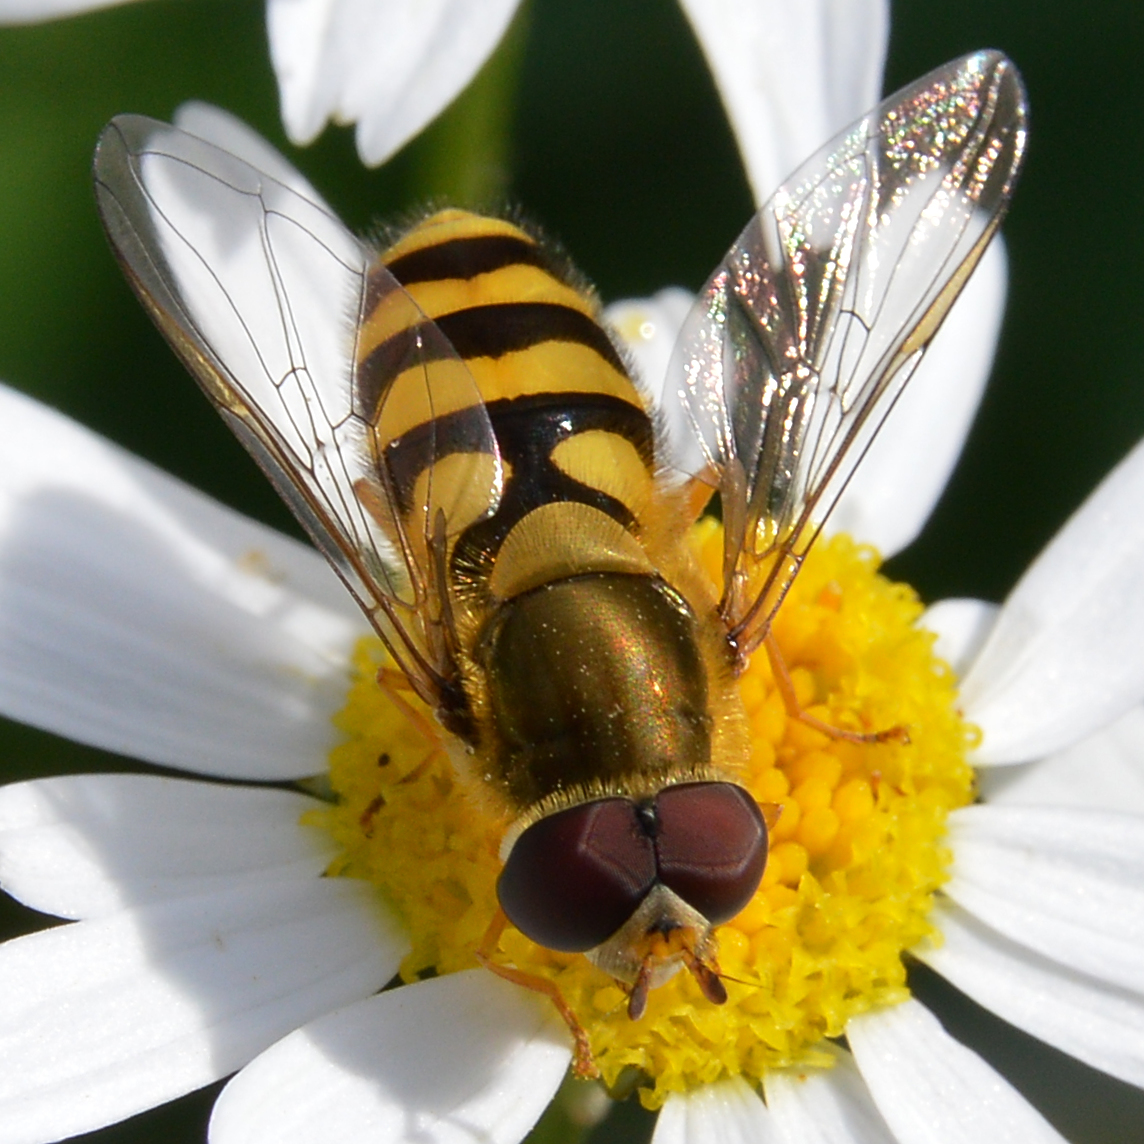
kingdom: Animalia
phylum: Arthropoda
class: Insecta
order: Diptera
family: Syrphidae
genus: Syrphus
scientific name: Syrphus
